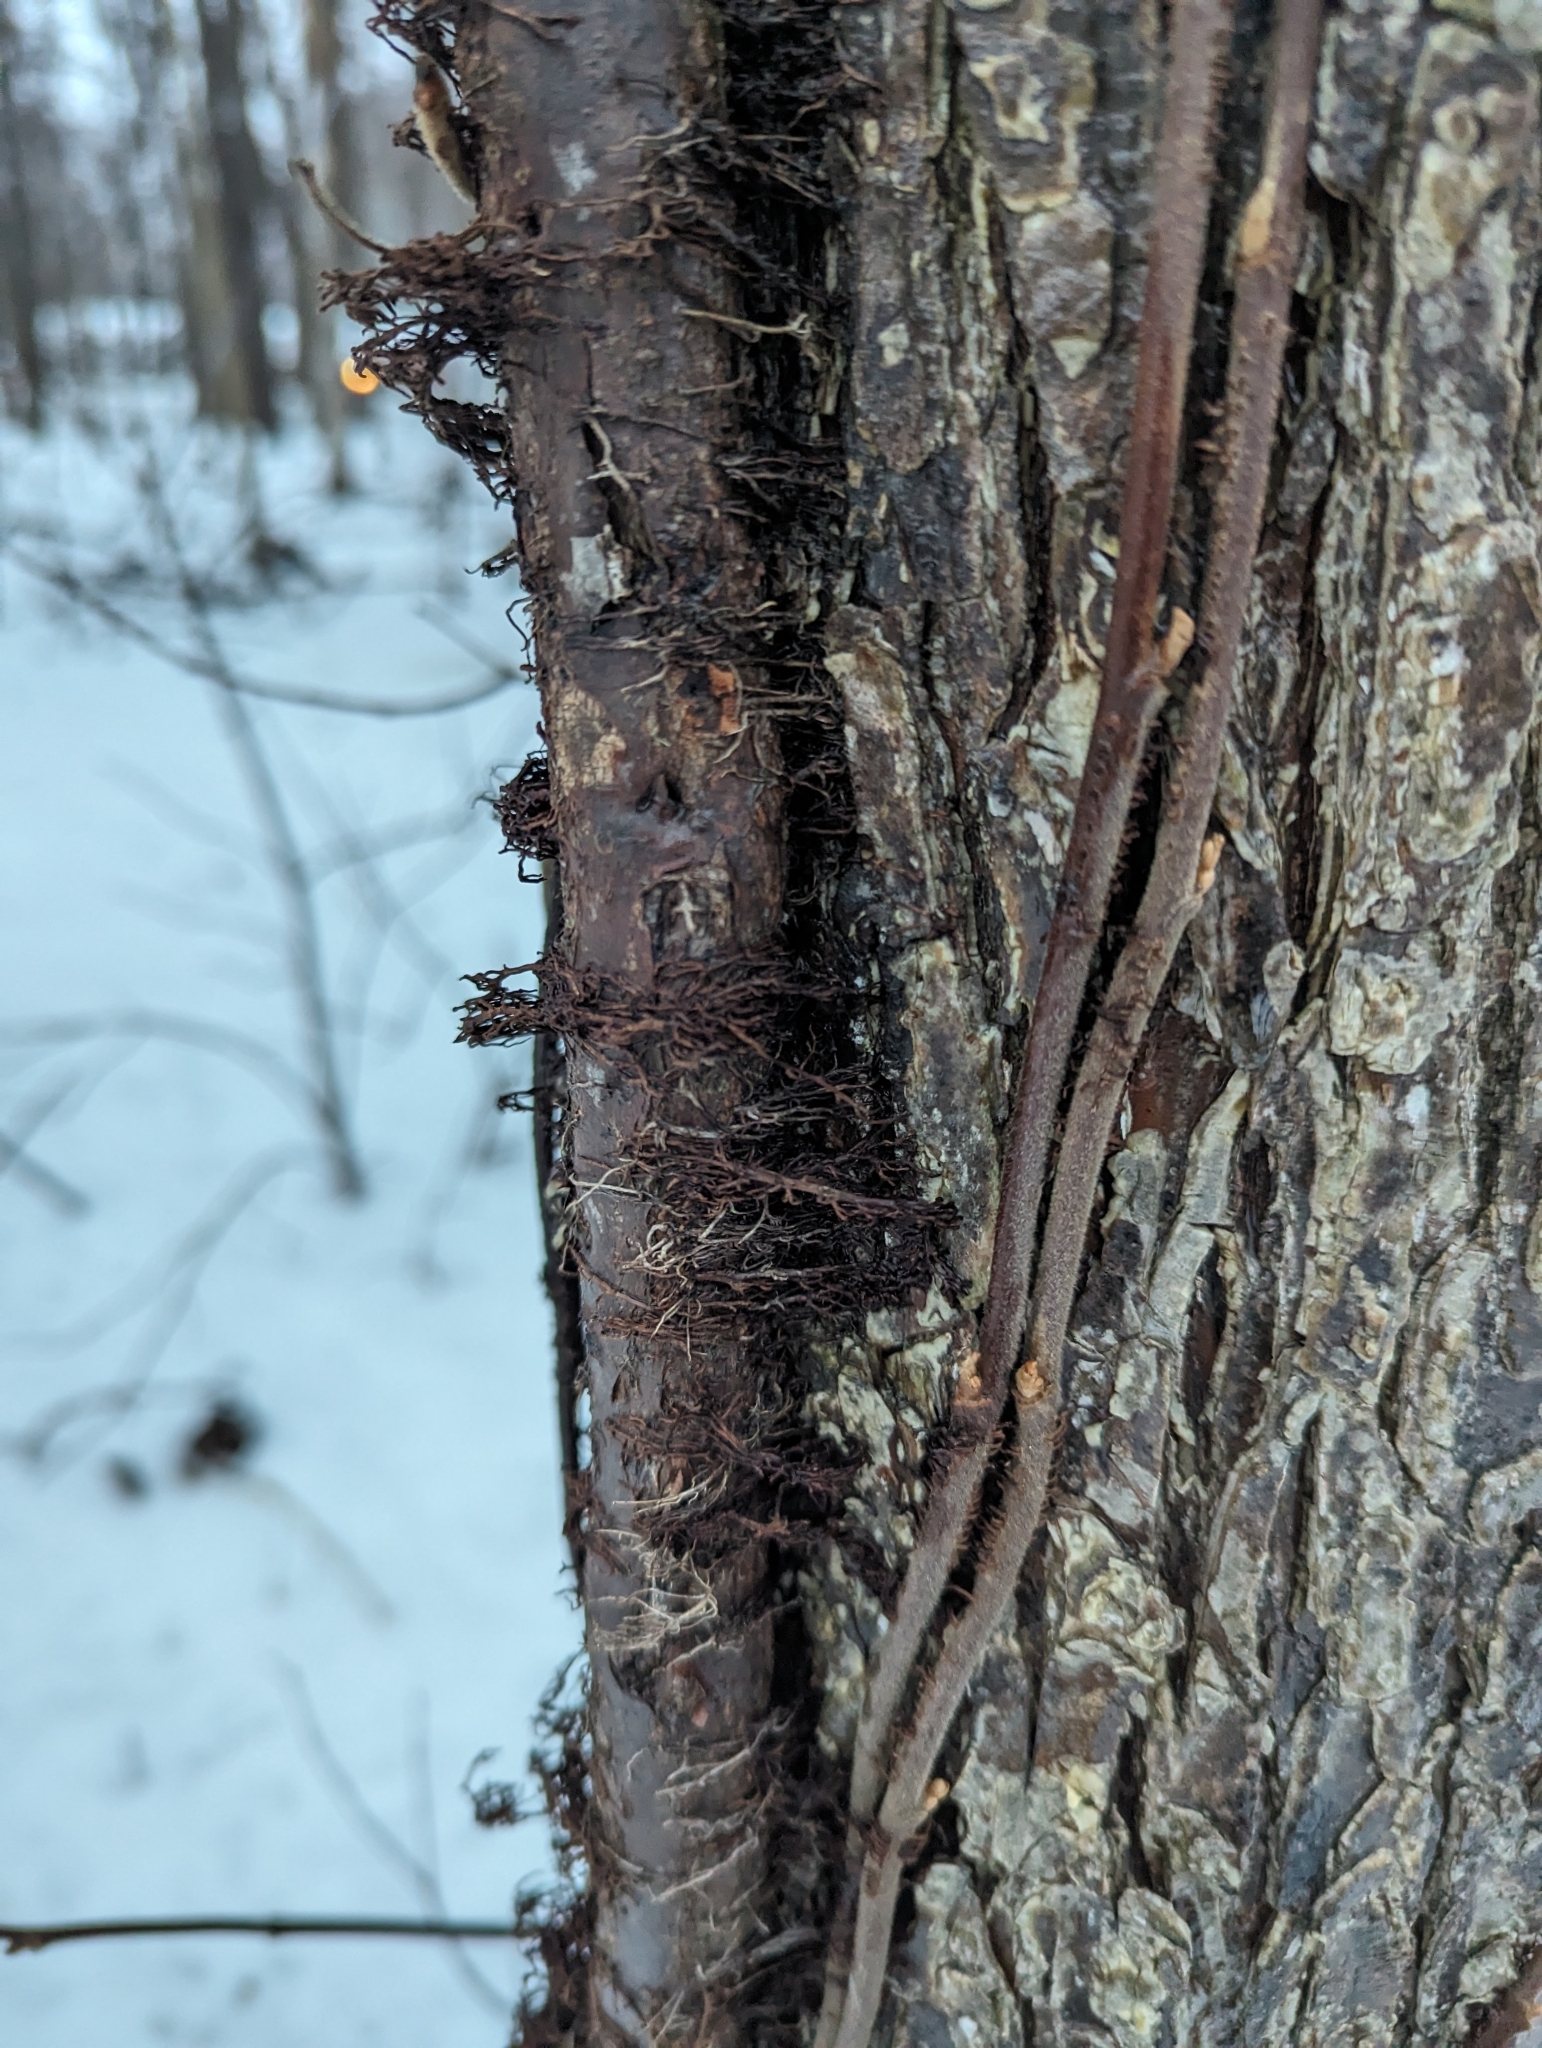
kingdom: Plantae
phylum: Tracheophyta
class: Magnoliopsida
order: Sapindales
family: Anacardiaceae
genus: Toxicodendron
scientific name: Toxicodendron radicans
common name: Poison ivy
